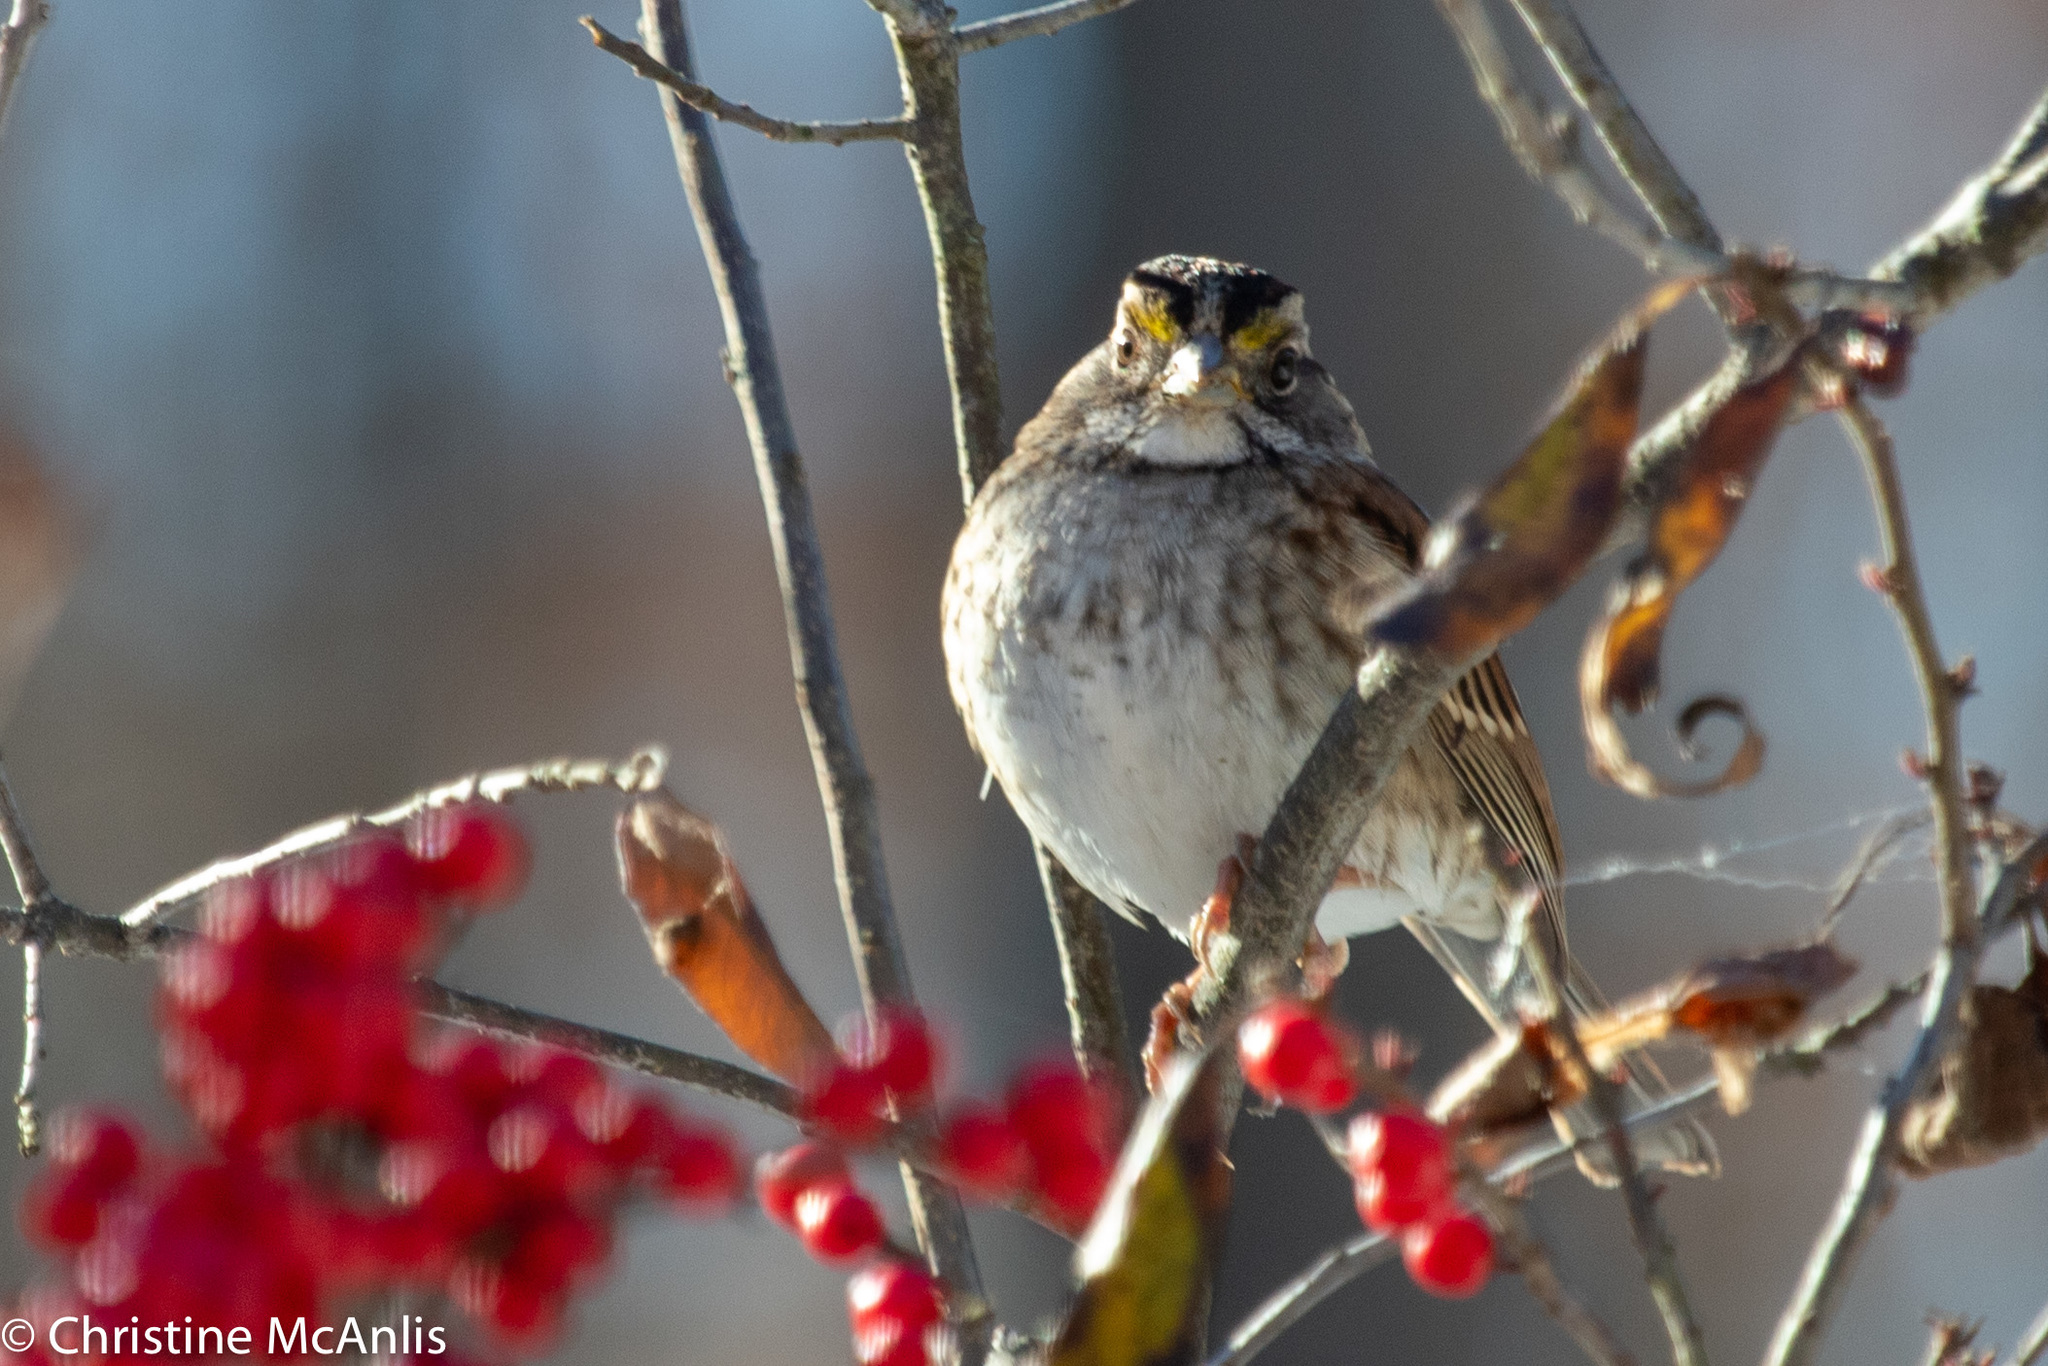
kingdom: Animalia
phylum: Chordata
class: Aves
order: Passeriformes
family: Passerellidae
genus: Zonotrichia
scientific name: Zonotrichia albicollis
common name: White-throated sparrow
